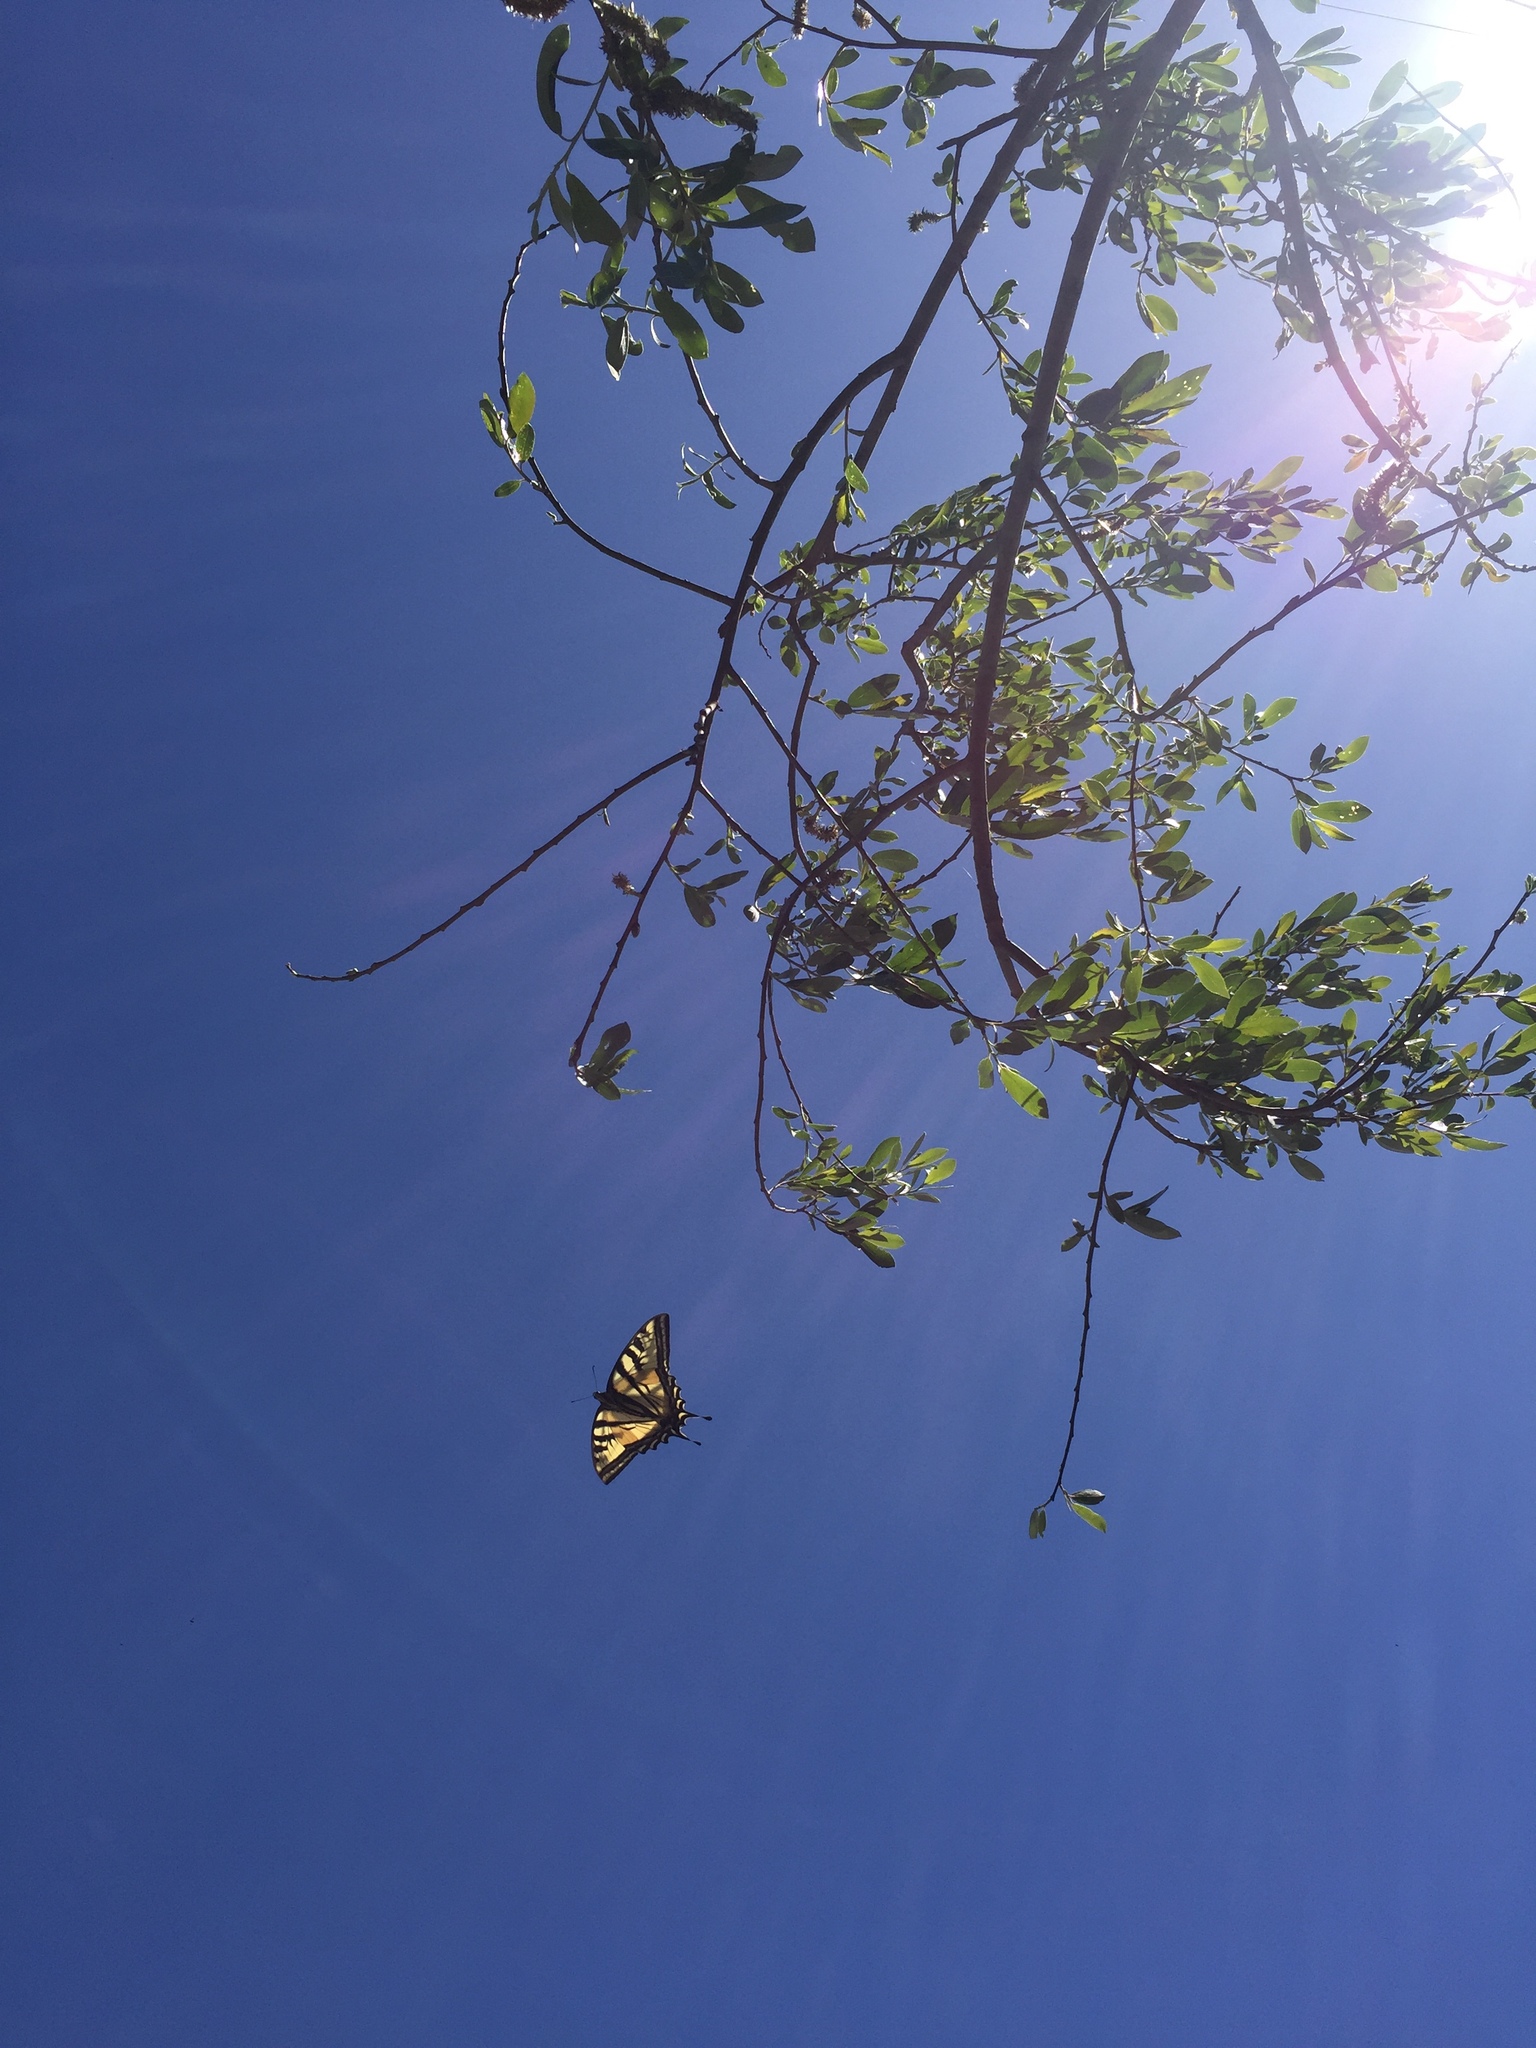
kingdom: Animalia
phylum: Arthropoda
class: Insecta
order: Lepidoptera
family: Papilionidae
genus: Papilio
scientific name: Papilio rutulus
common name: Western tiger swallowtail
